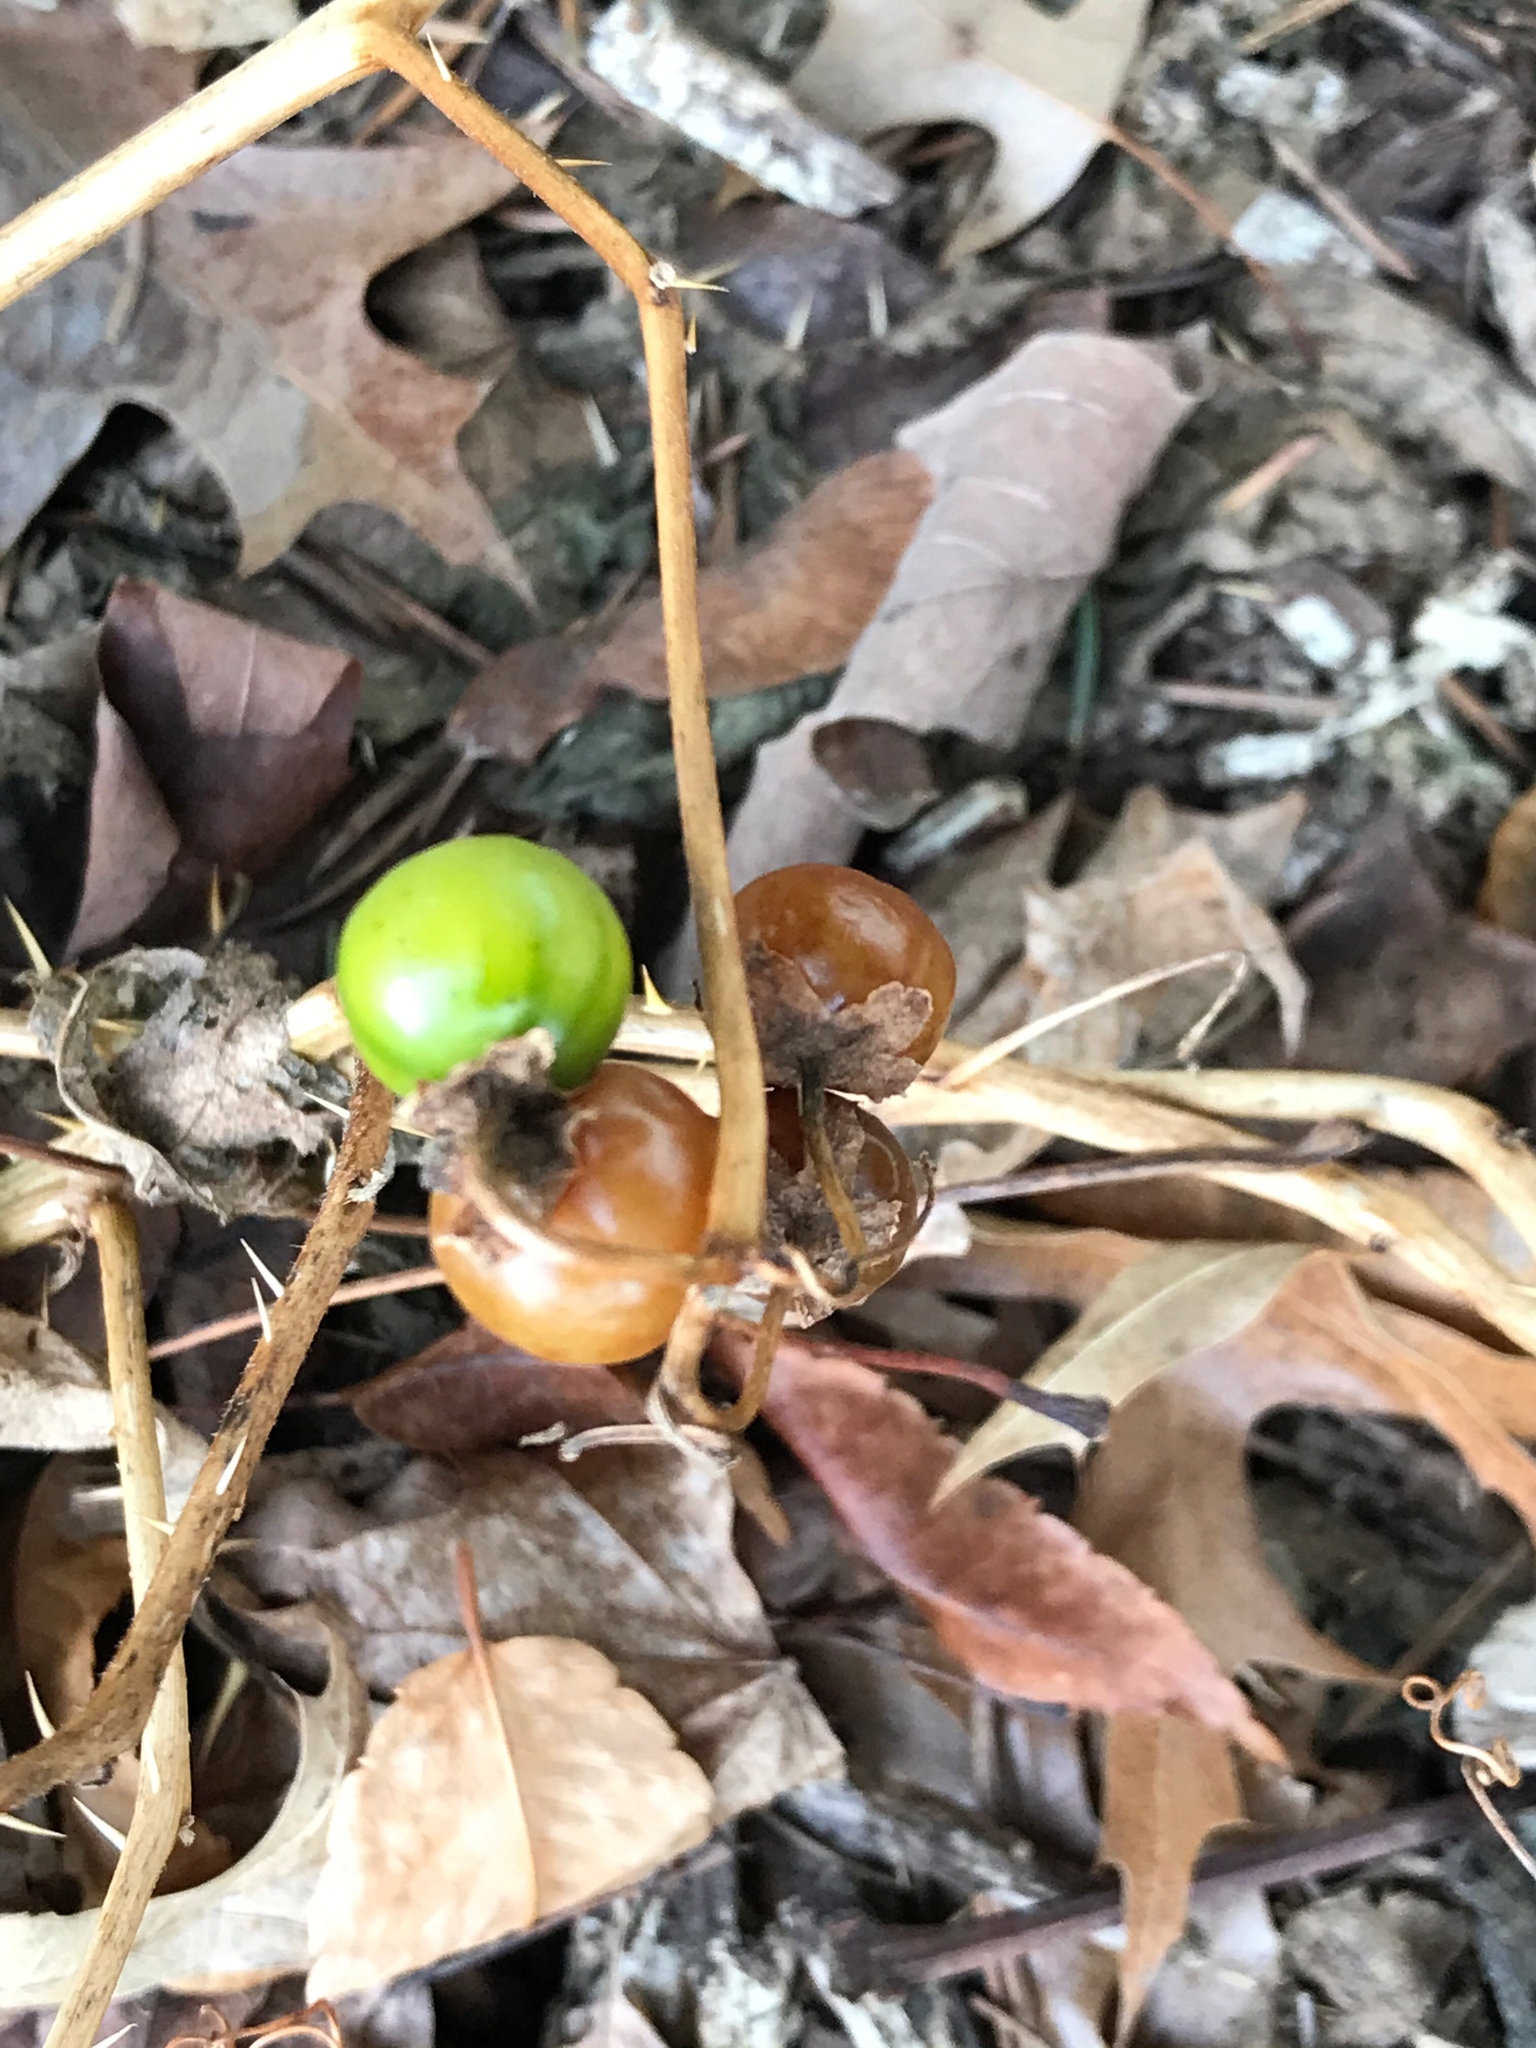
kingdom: Plantae
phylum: Tracheophyta
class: Magnoliopsida
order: Solanales
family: Solanaceae
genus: Solanum
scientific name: Solanum carolinense
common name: Horse-nettle
